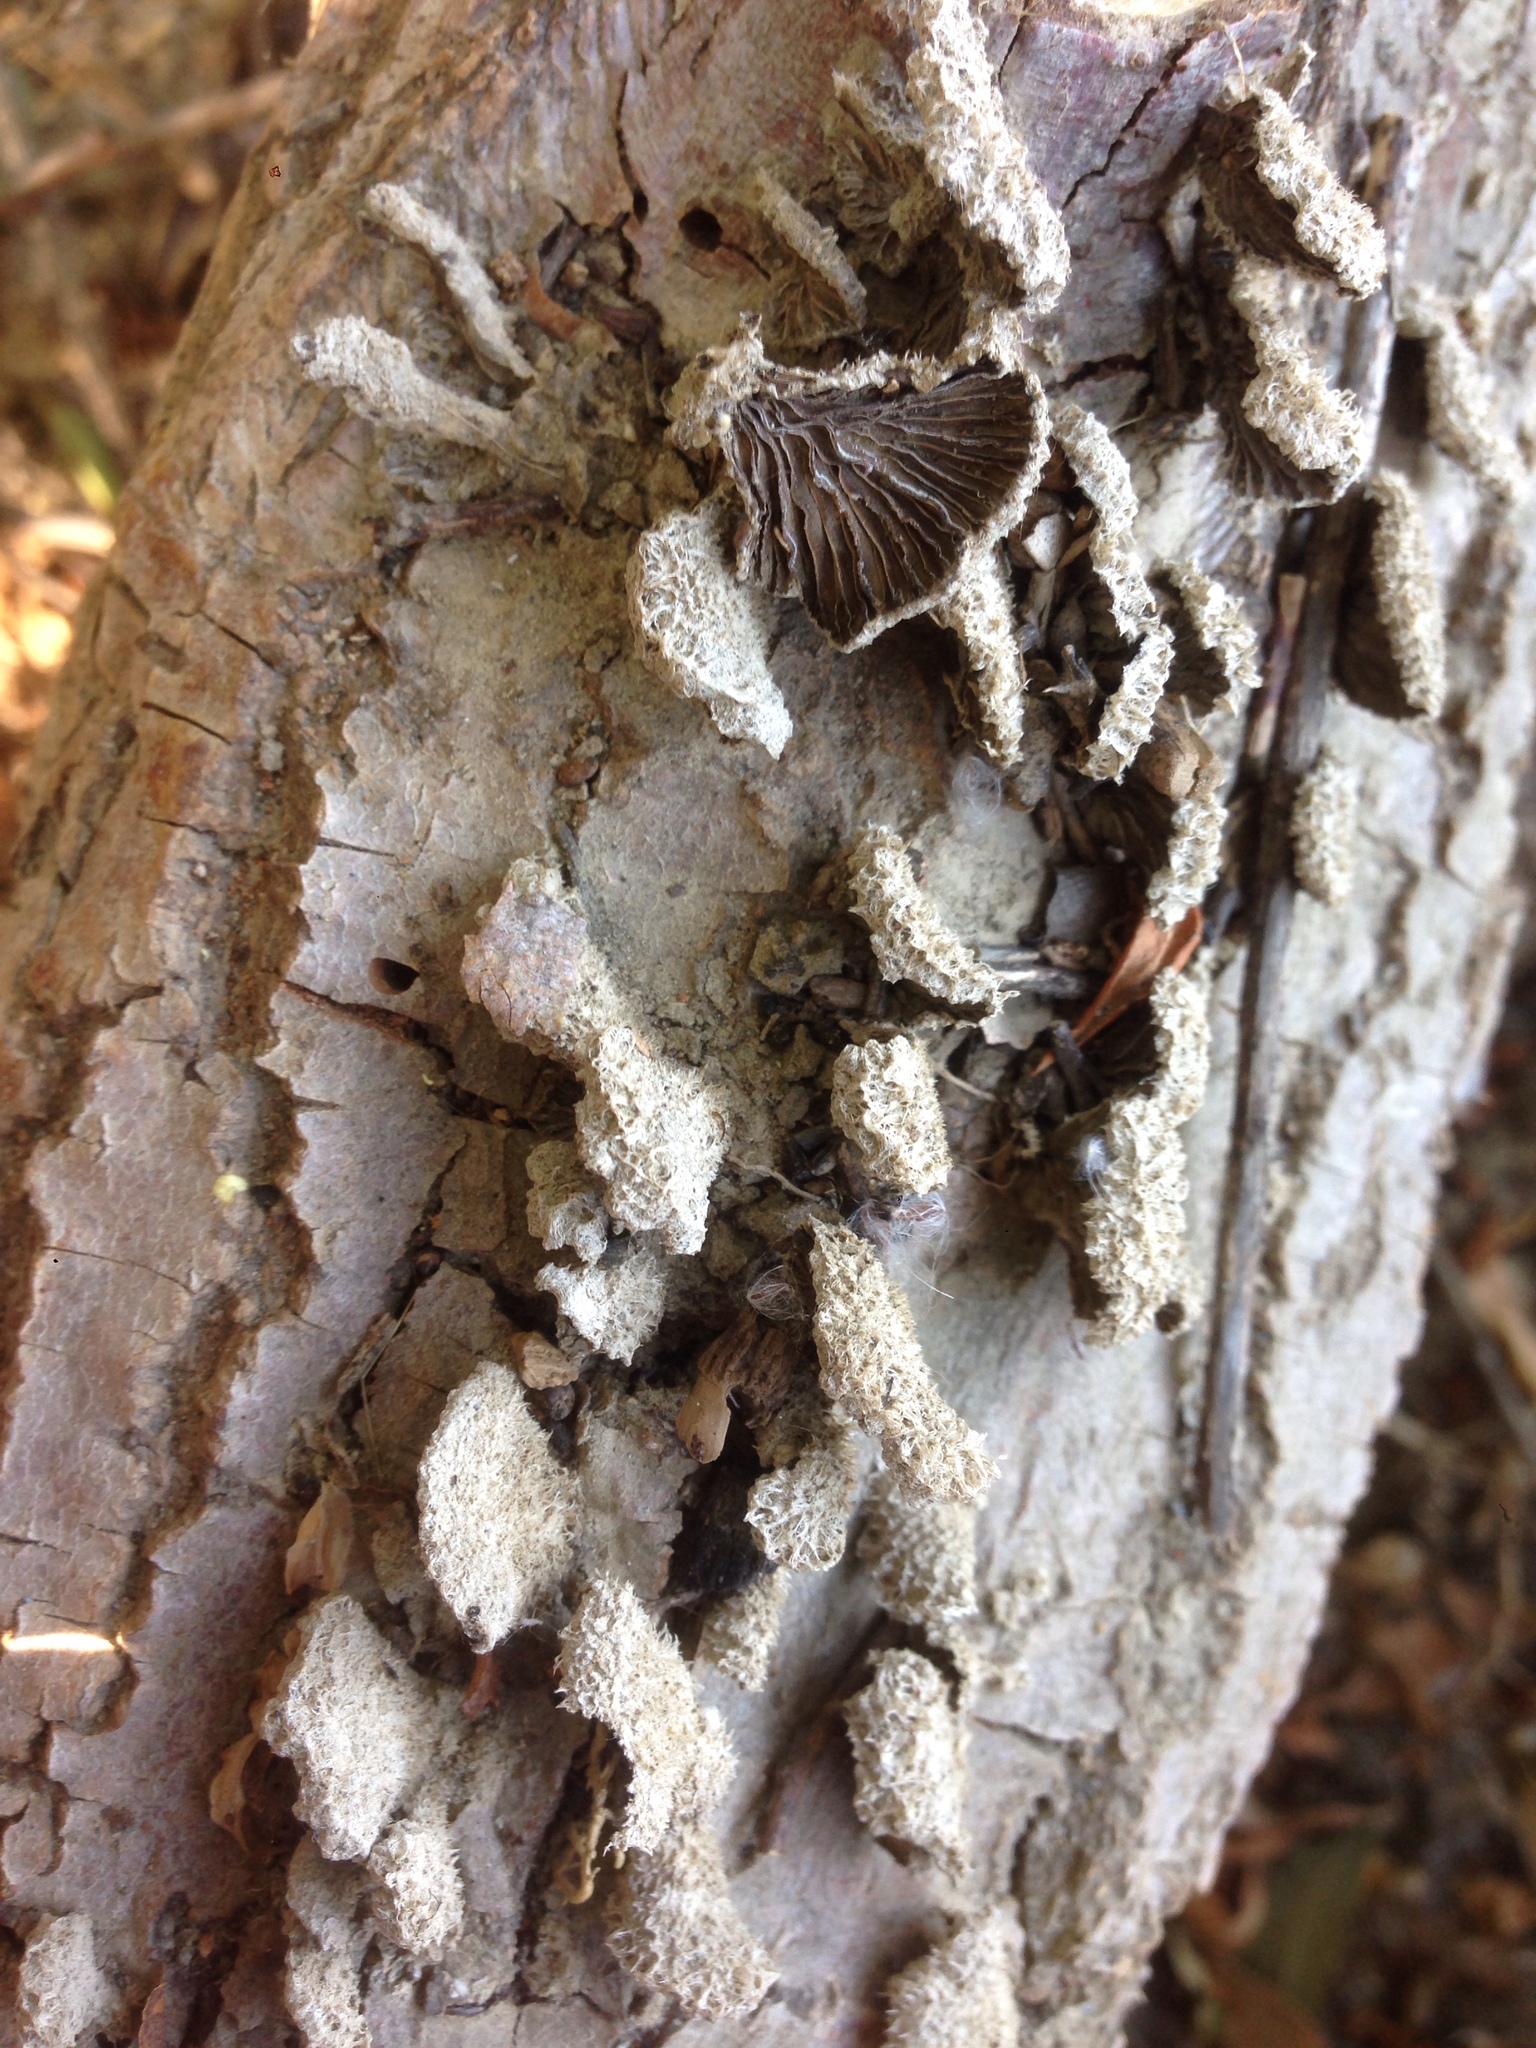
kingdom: Fungi
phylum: Basidiomycota
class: Agaricomycetes
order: Agaricales
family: Schizophyllaceae
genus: Schizophyllum
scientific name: Schizophyllum commune
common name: Common porecrust
